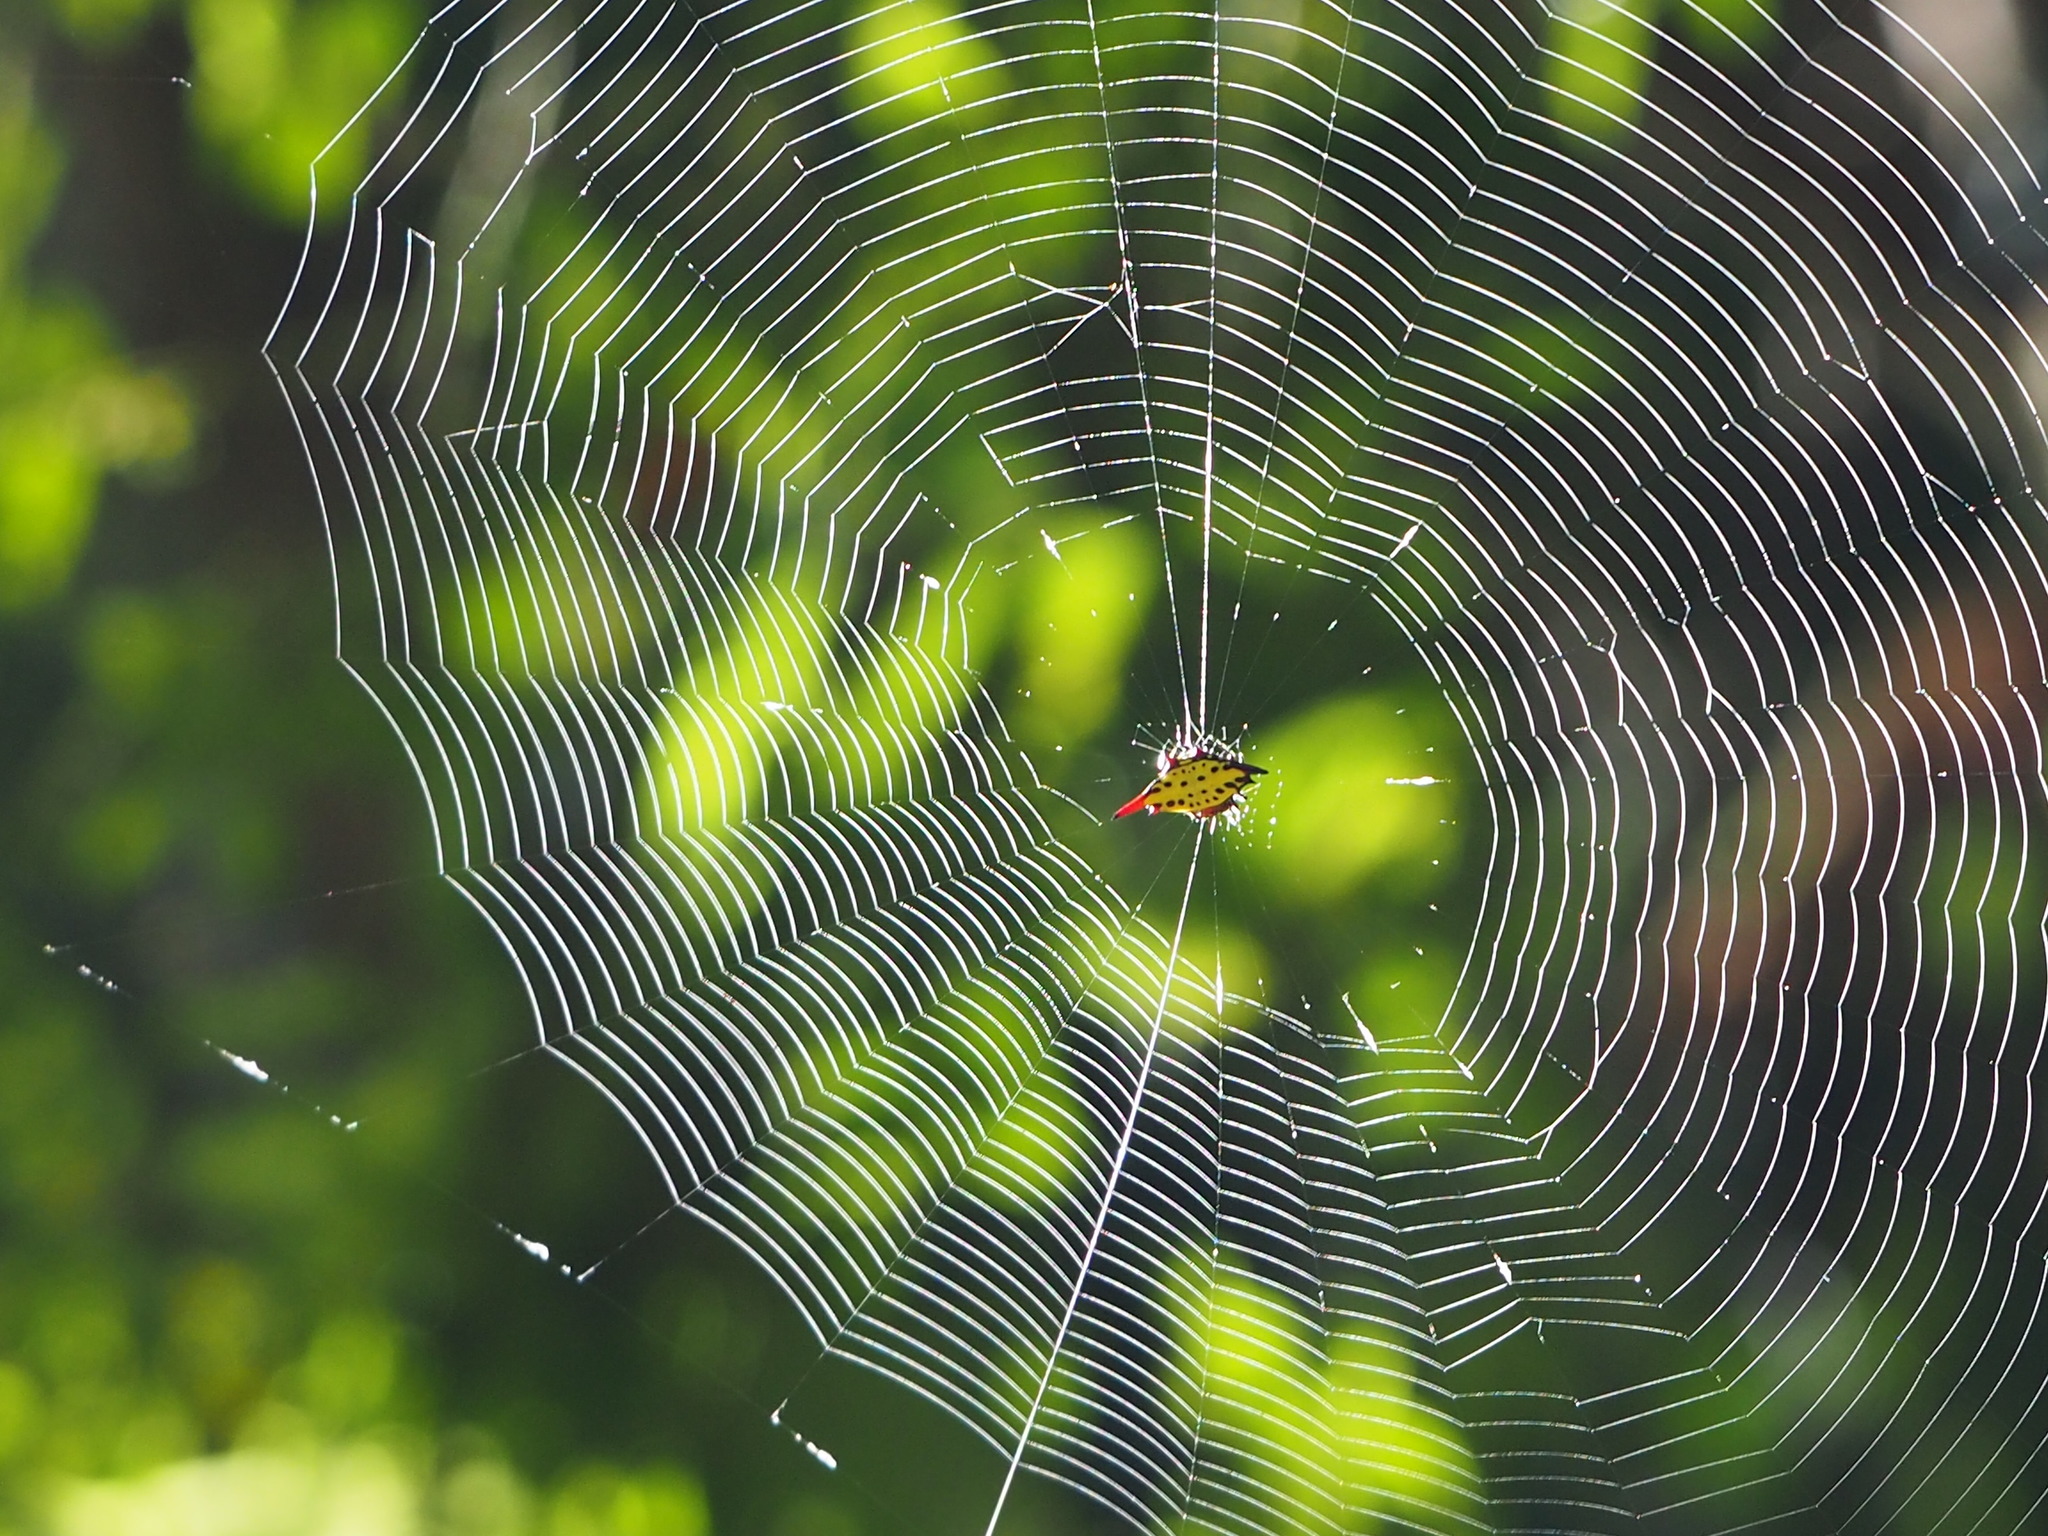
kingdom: Animalia
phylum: Arthropoda
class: Arachnida
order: Araneae
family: Araneidae
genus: Gasteracantha
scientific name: Gasteracantha sauteri
